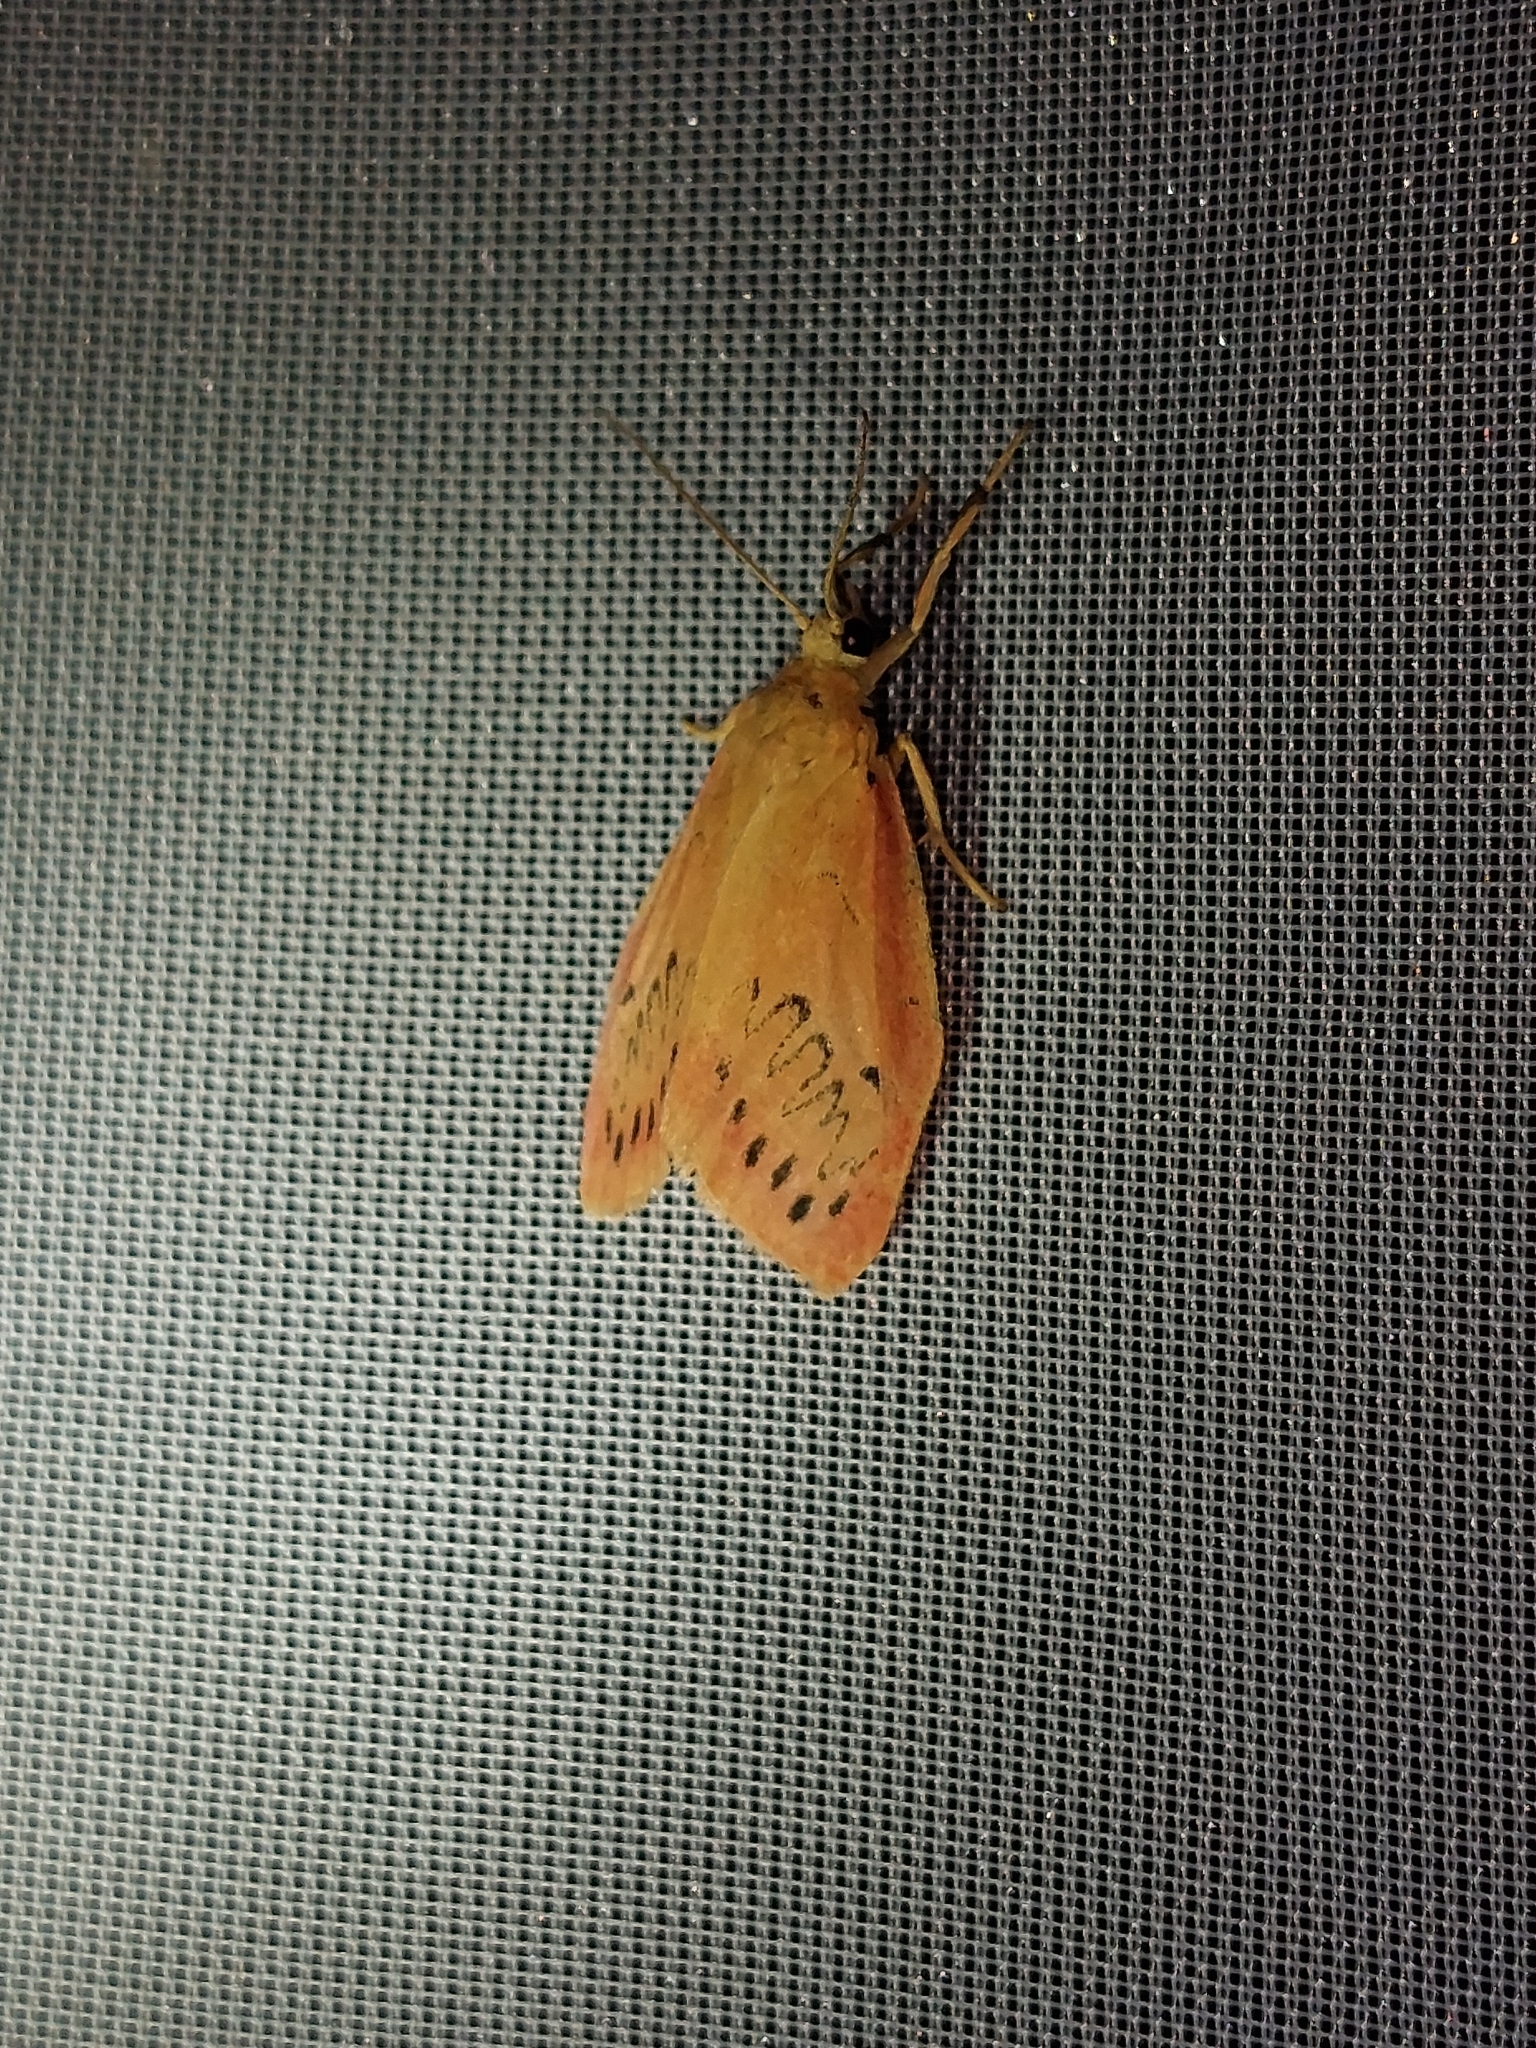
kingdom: Animalia
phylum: Arthropoda
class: Insecta
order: Lepidoptera
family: Erebidae
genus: Miltochrista
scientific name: Miltochrista miniata
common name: Rosy footman
